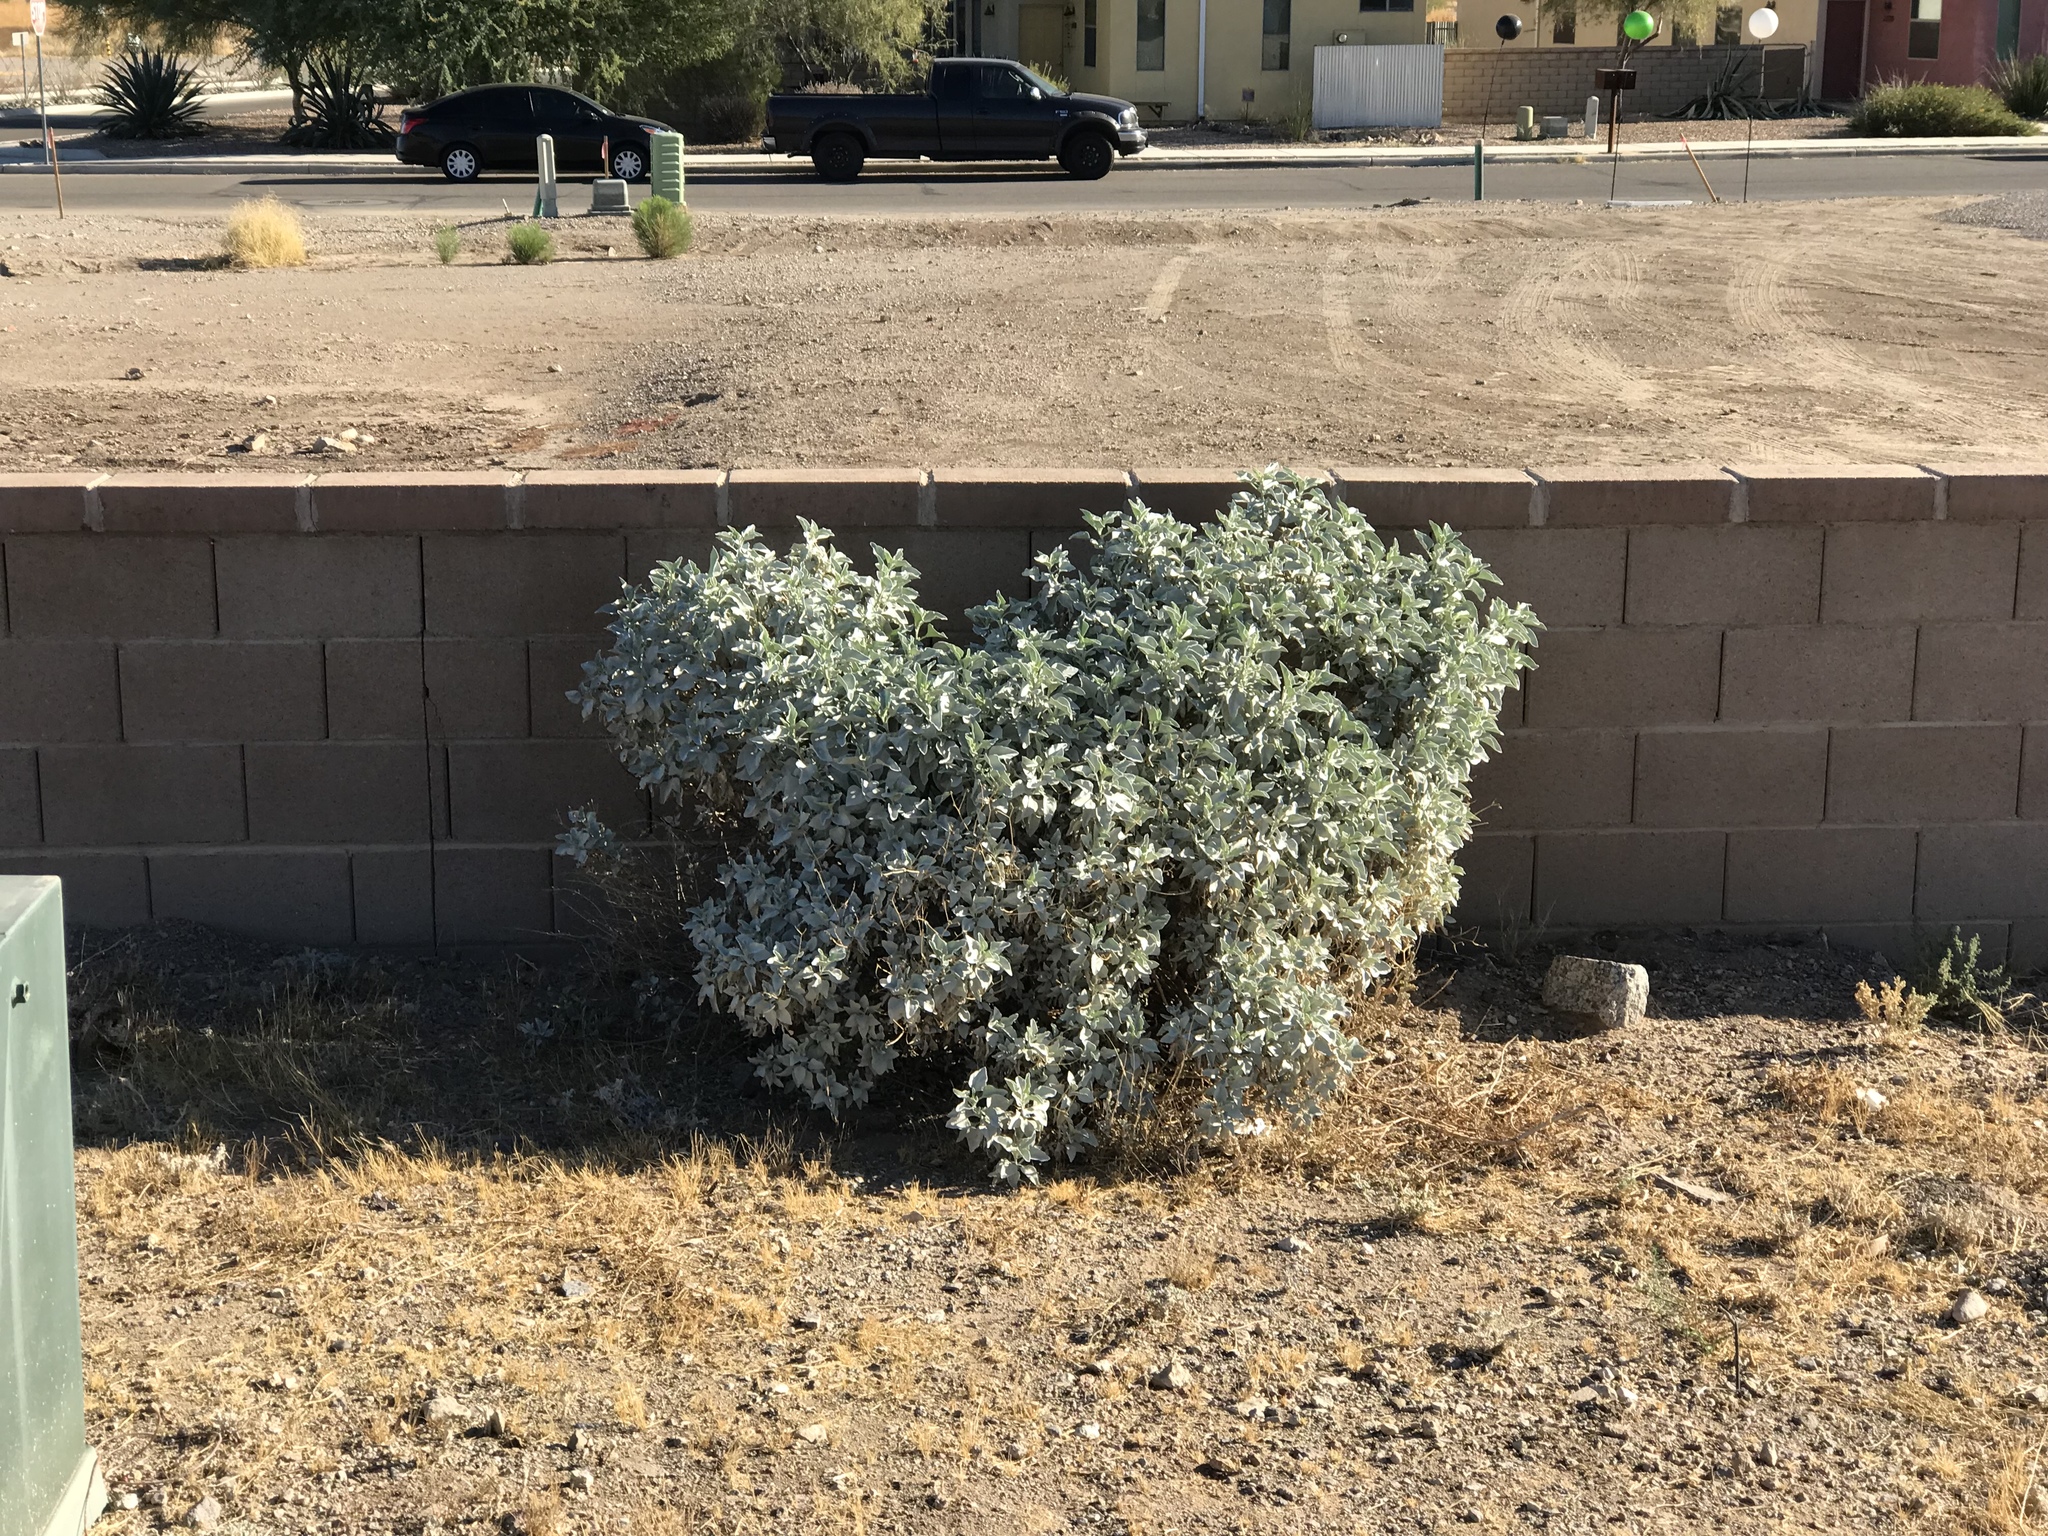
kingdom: Plantae
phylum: Tracheophyta
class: Magnoliopsida
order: Asterales
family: Asteraceae
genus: Encelia
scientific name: Encelia farinosa
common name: Brittlebush
